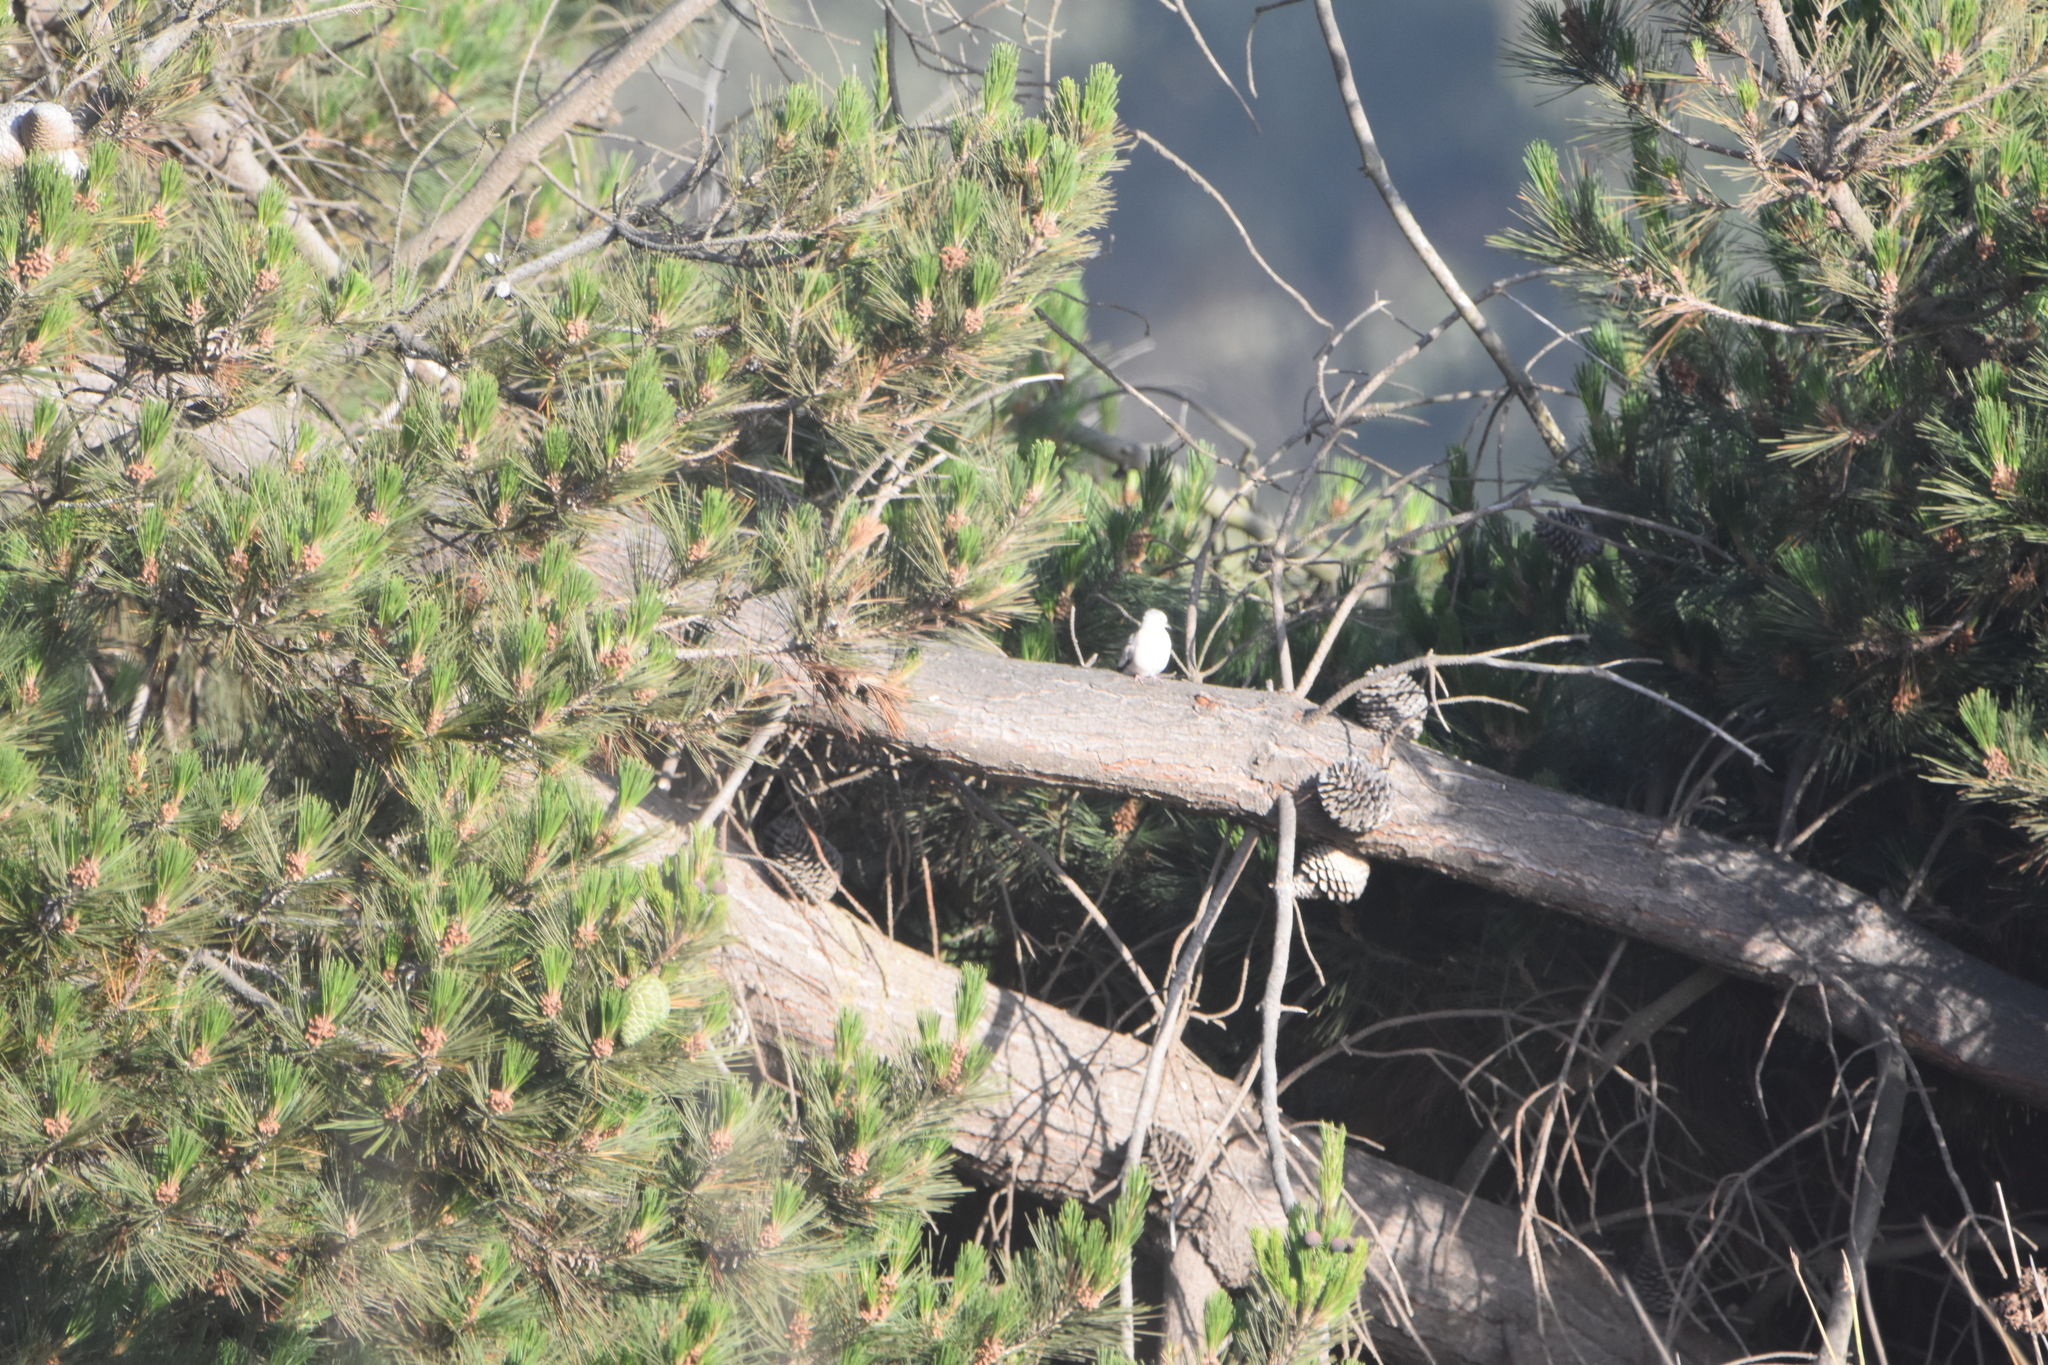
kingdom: Plantae
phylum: Tracheophyta
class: Pinopsida
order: Pinales
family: Pinaceae
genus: Pinus
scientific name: Pinus radiata
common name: Monterey pine
